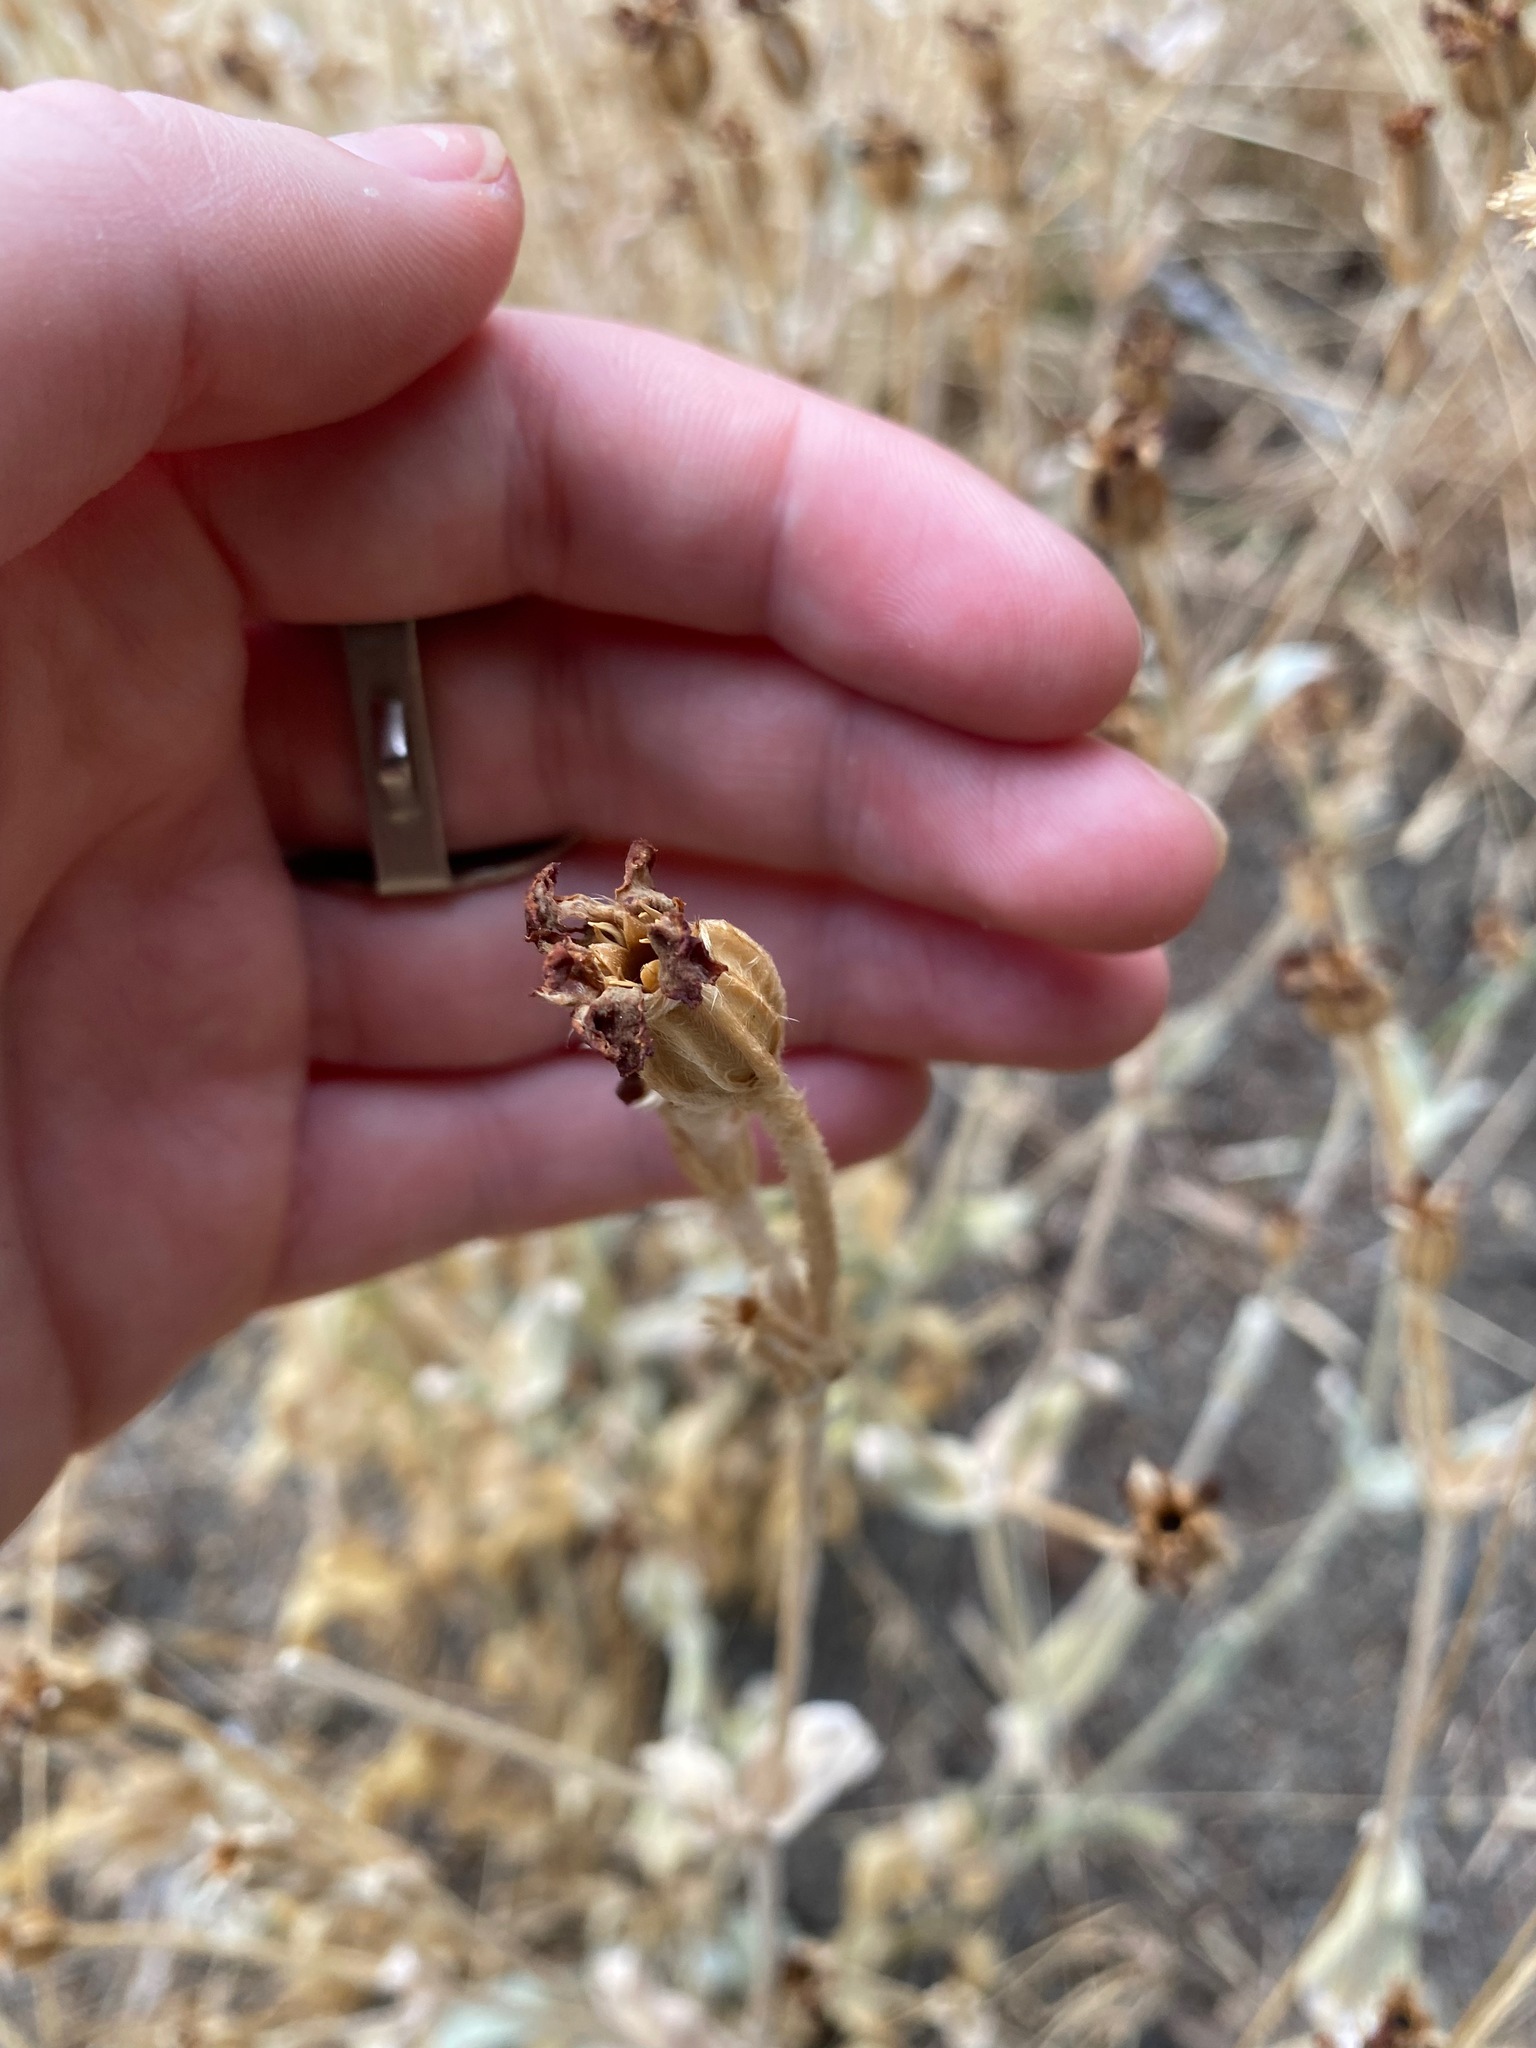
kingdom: Plantae
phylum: Tracheophyta
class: Magnoliopsida
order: Caryophyllales
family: Caryophyllaceae
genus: Silene
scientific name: Silene coronaria
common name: Rose campion
